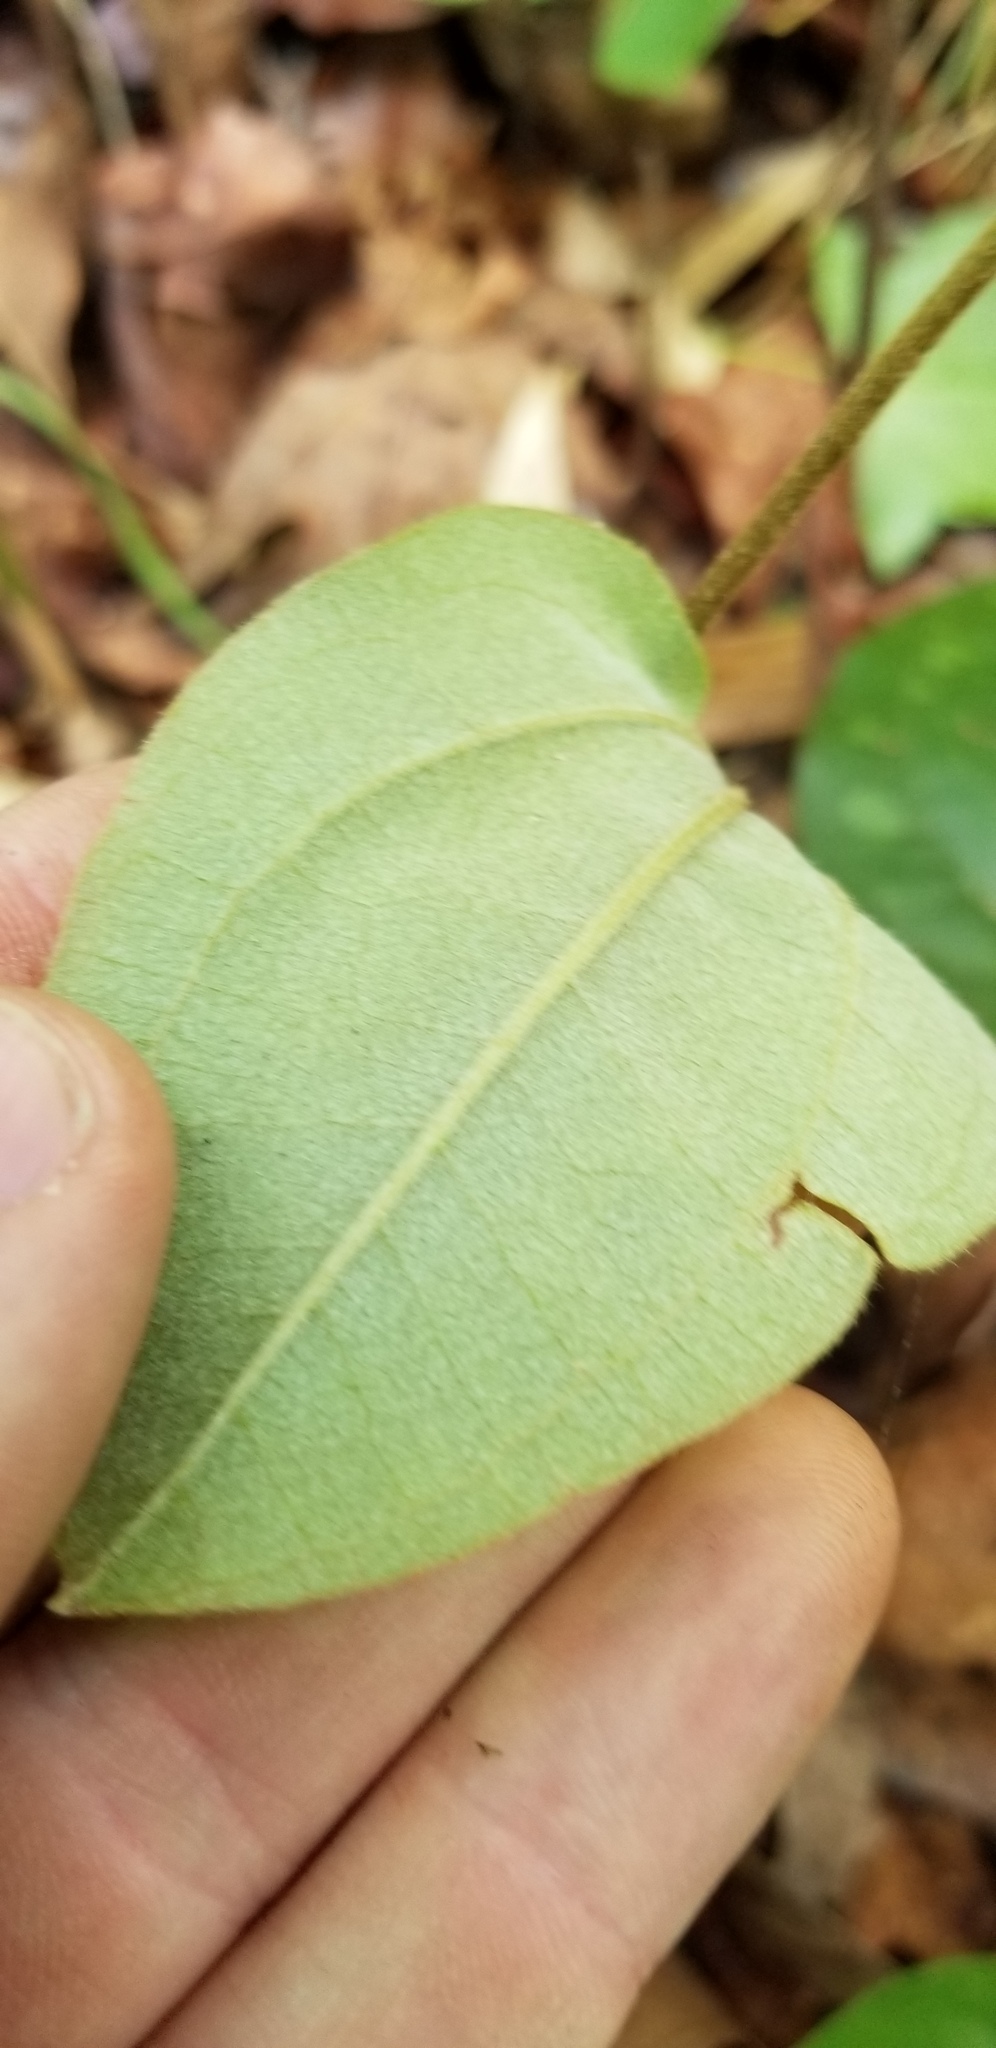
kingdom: Plantae
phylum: Tracheophyta
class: Liliopsida
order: Liliales
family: Smilacaceae
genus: Smilax
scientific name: Smilax pumila
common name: Sarsaparilla-vine
